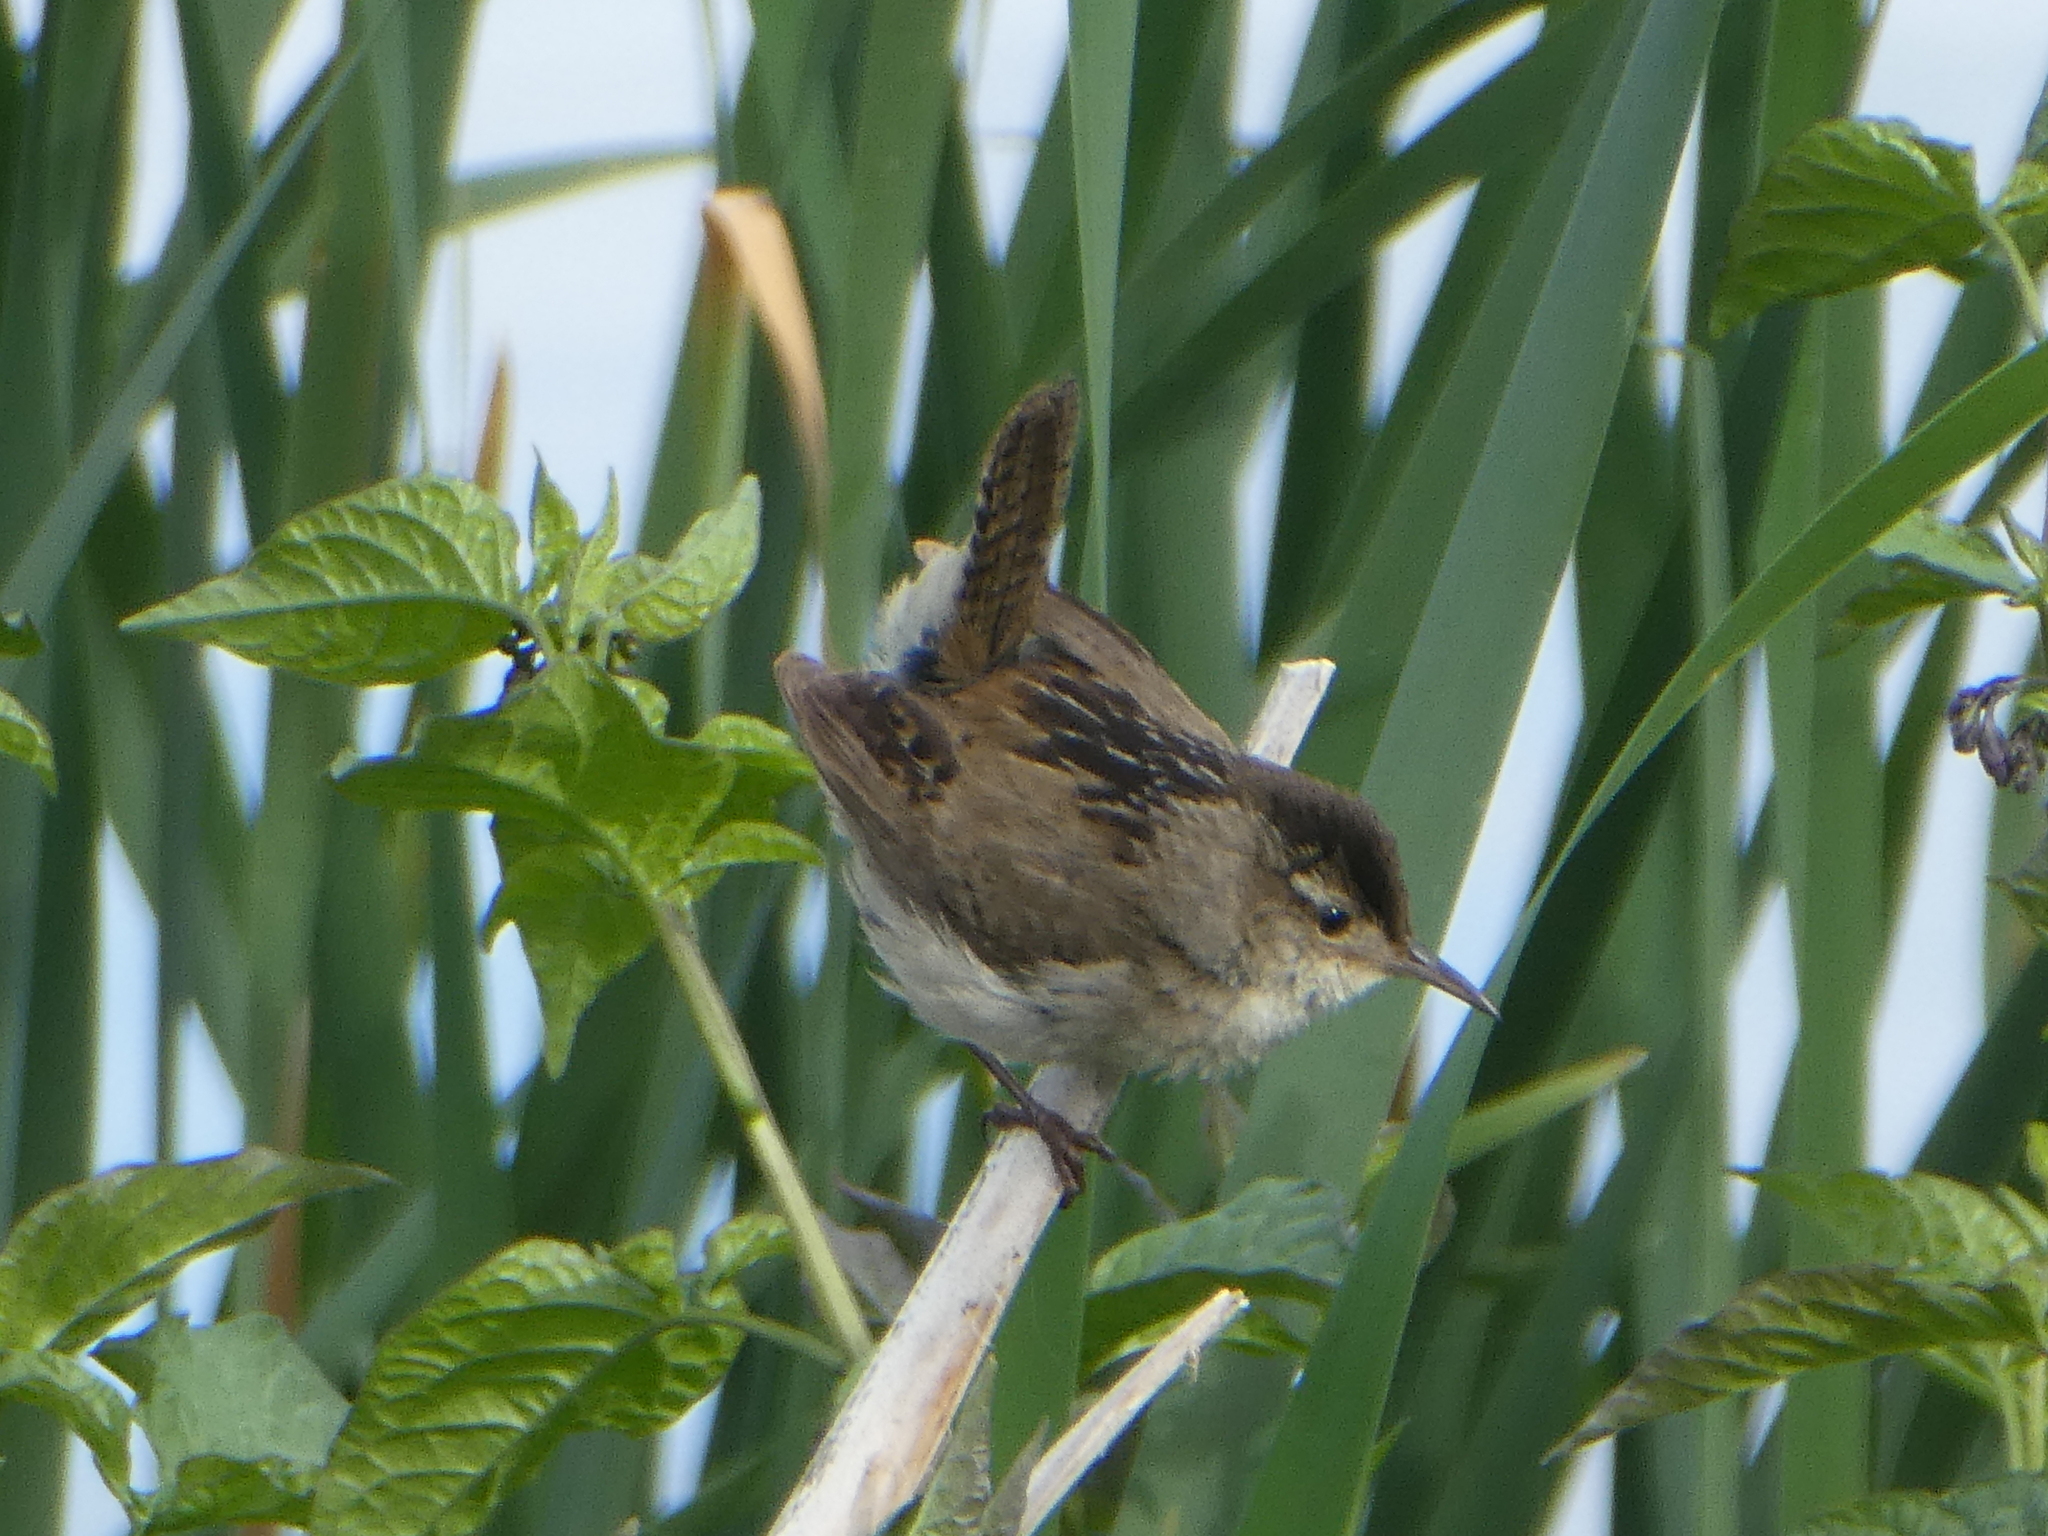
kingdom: Animalia
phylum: Chordata
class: Aves
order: Passeriformes
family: Troglodytidae
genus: Cistothorus
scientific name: Cistothorus palustris
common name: Marsh wren
